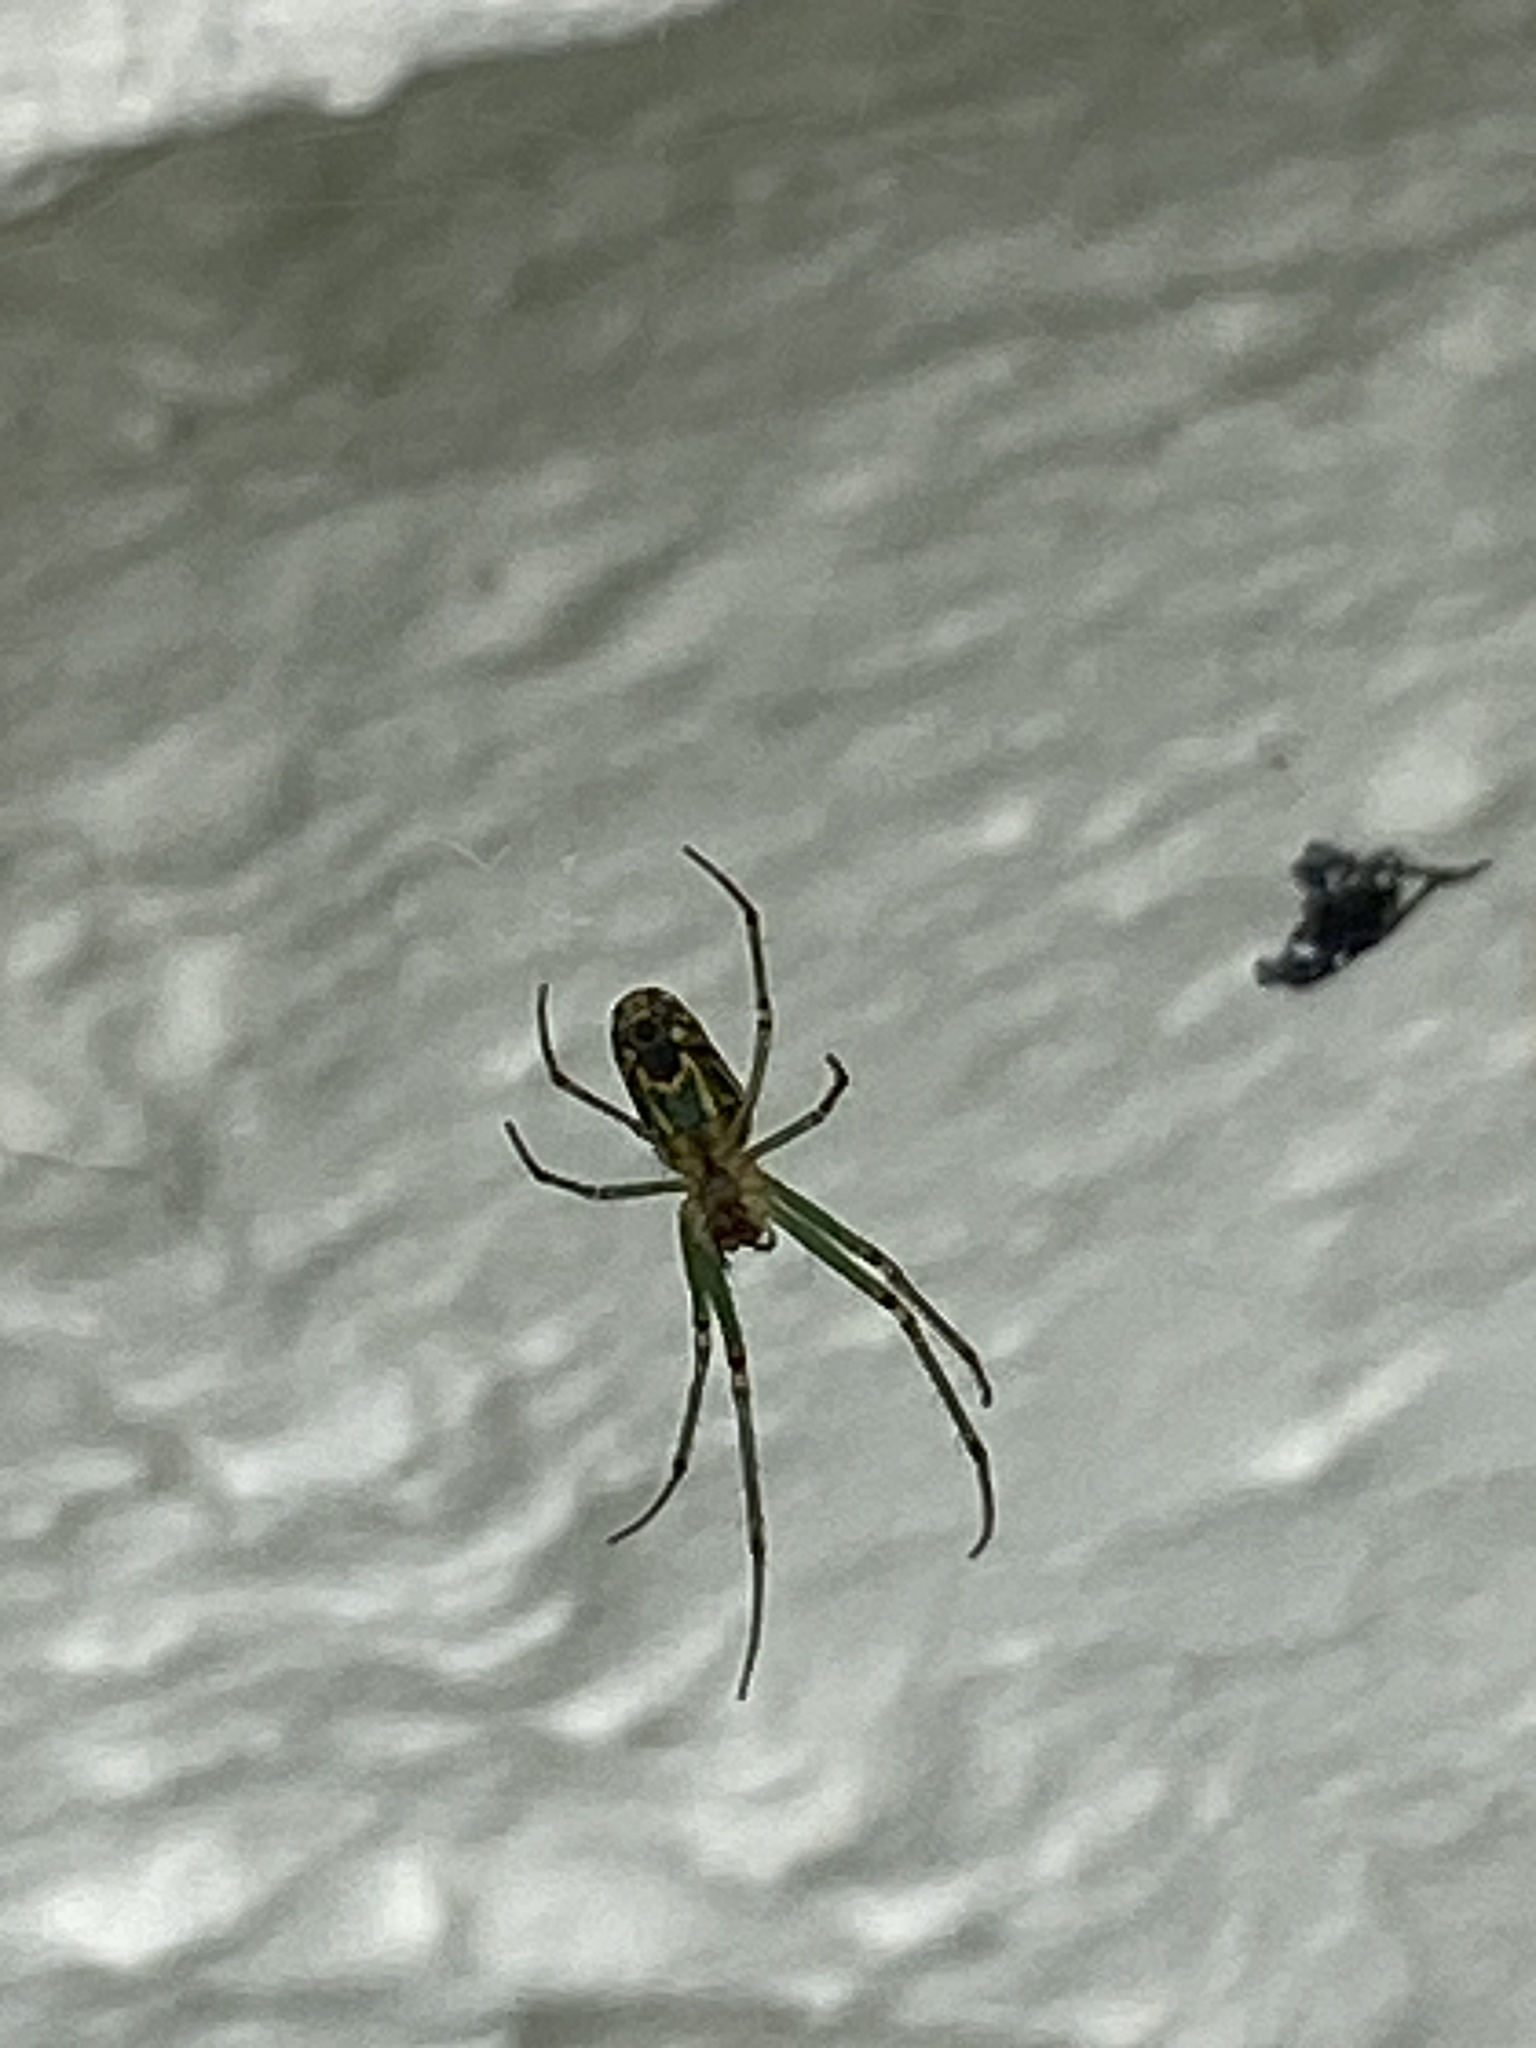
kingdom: Animalia
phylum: Arthropoda
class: Arachnida
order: Araneae
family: Tetragnathidae
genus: Leucauge
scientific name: Leucauge venusta
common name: Longjawed orb weavers
